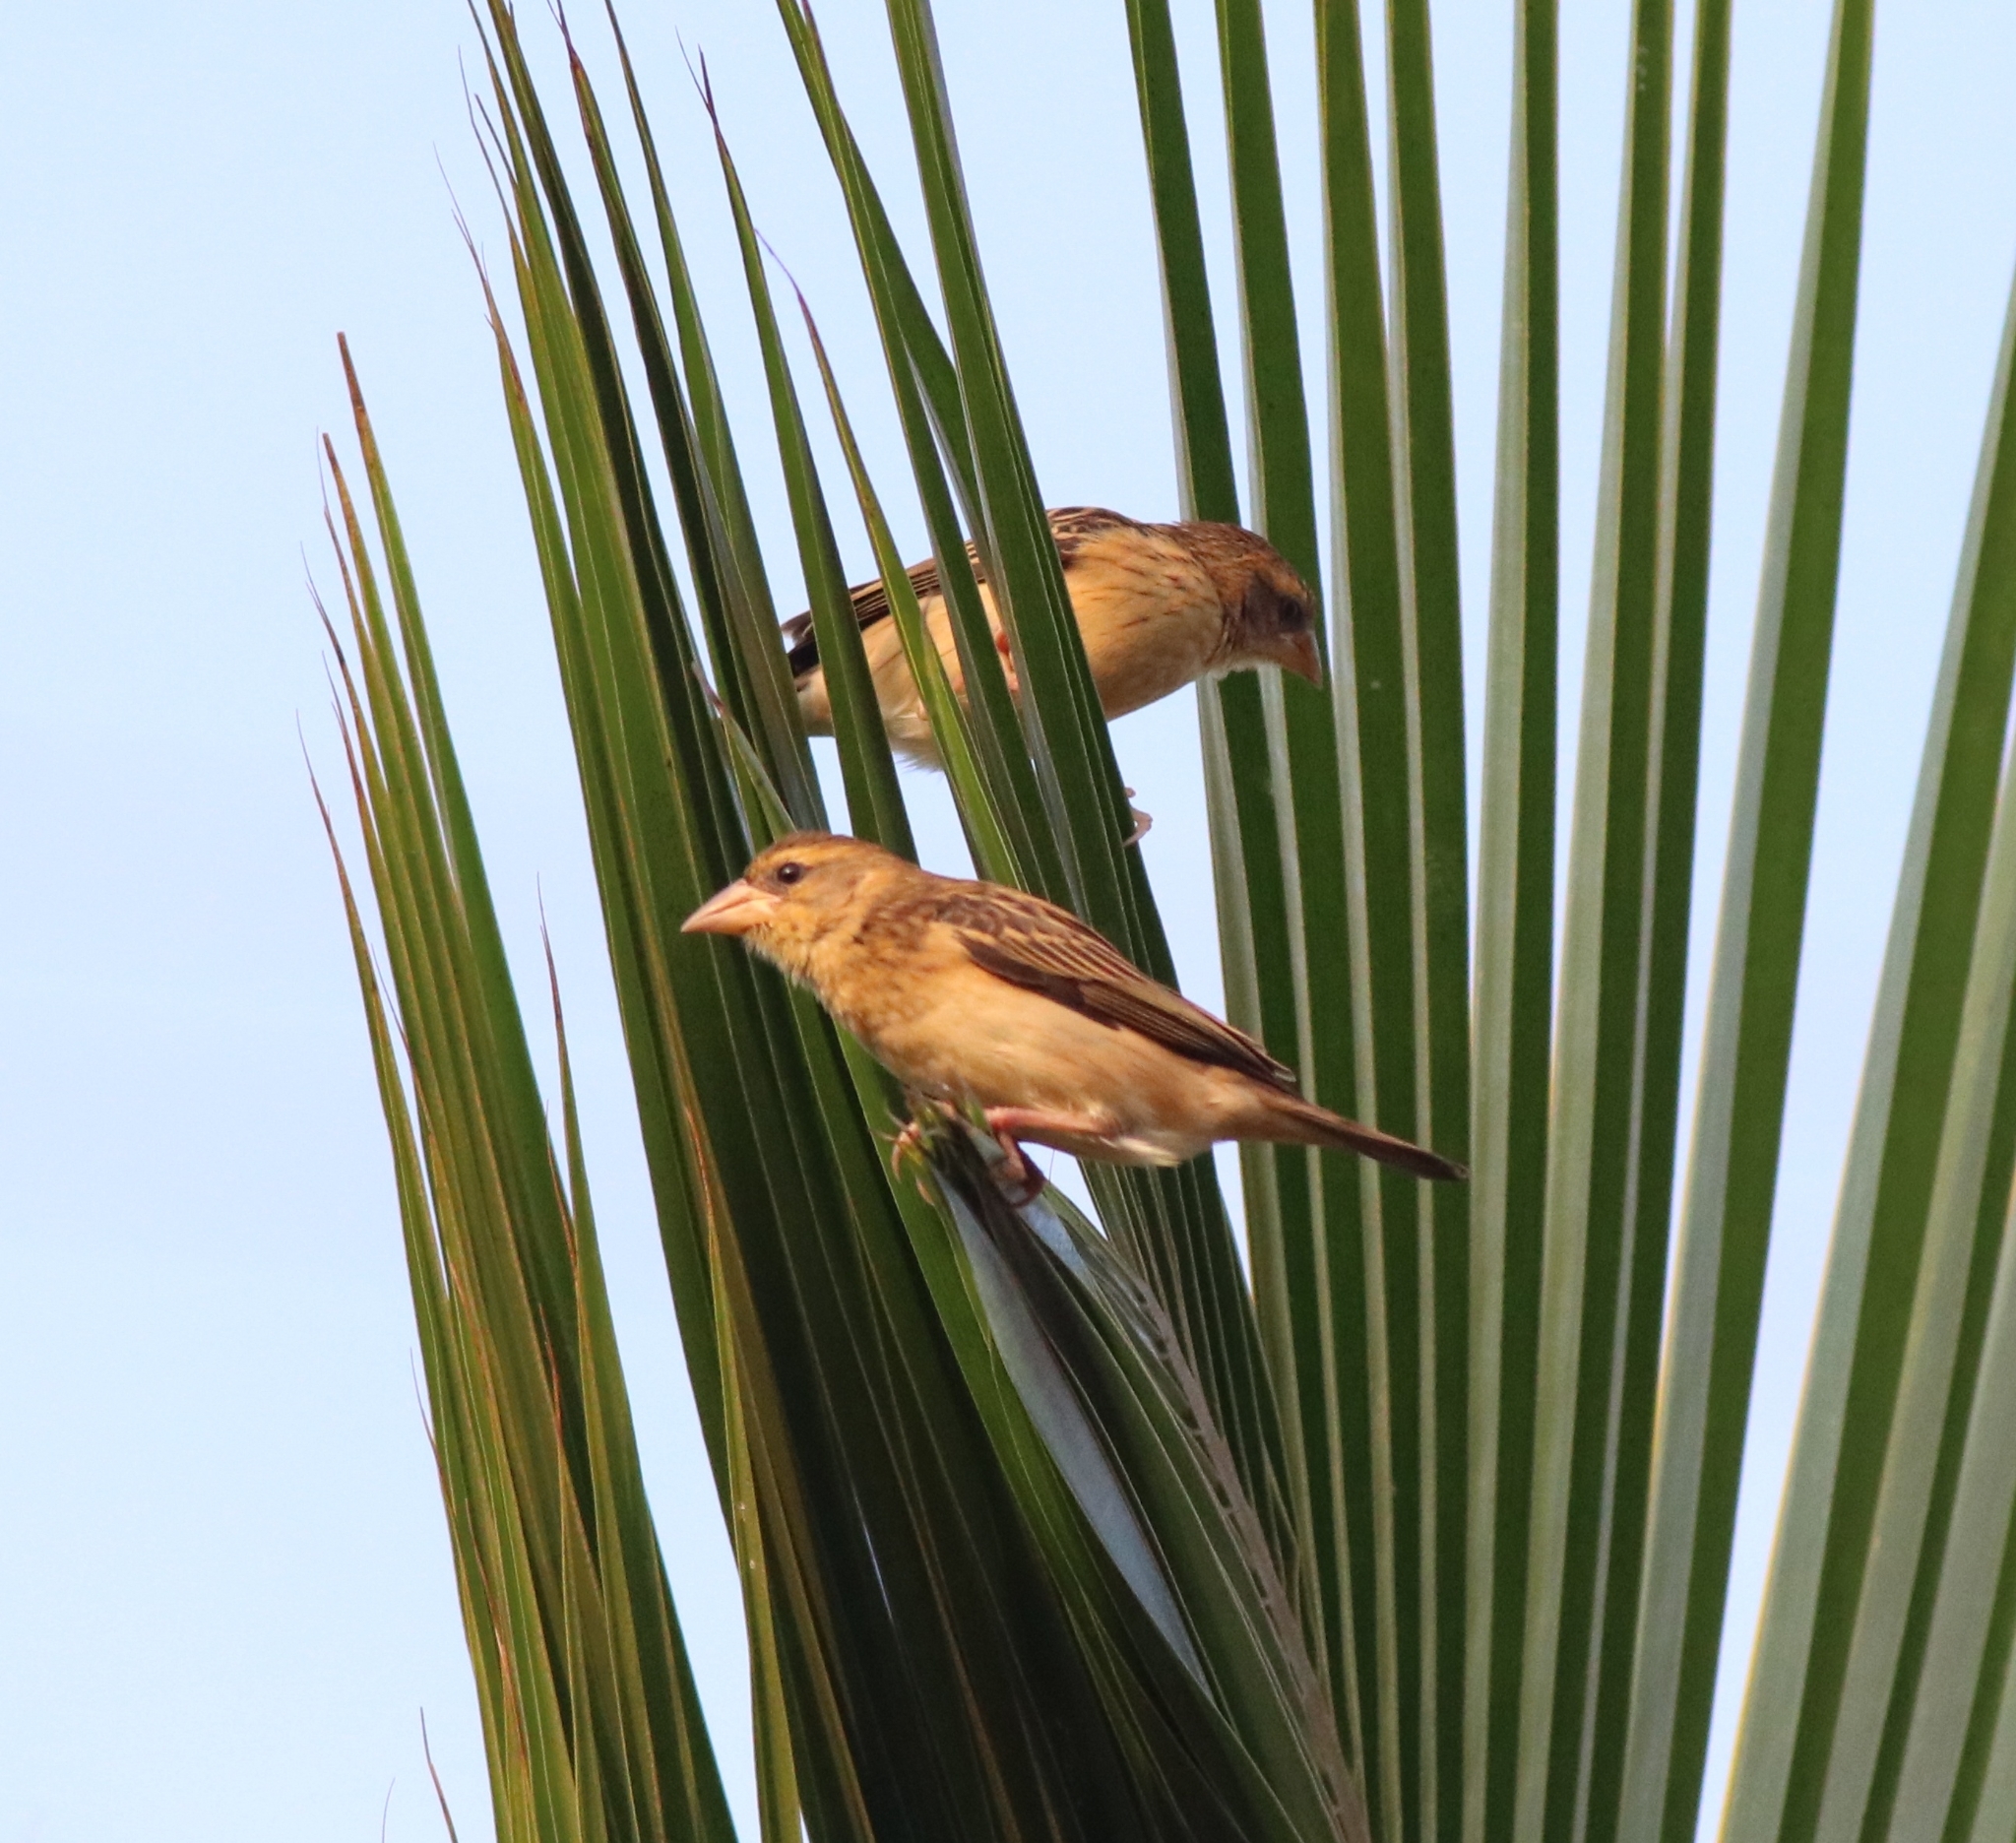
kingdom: Animalia
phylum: Chordata
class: Aves
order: Passeriformes
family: Ploceidae
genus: Ploceus
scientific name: Ploceus philippinus
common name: Baya weaver
